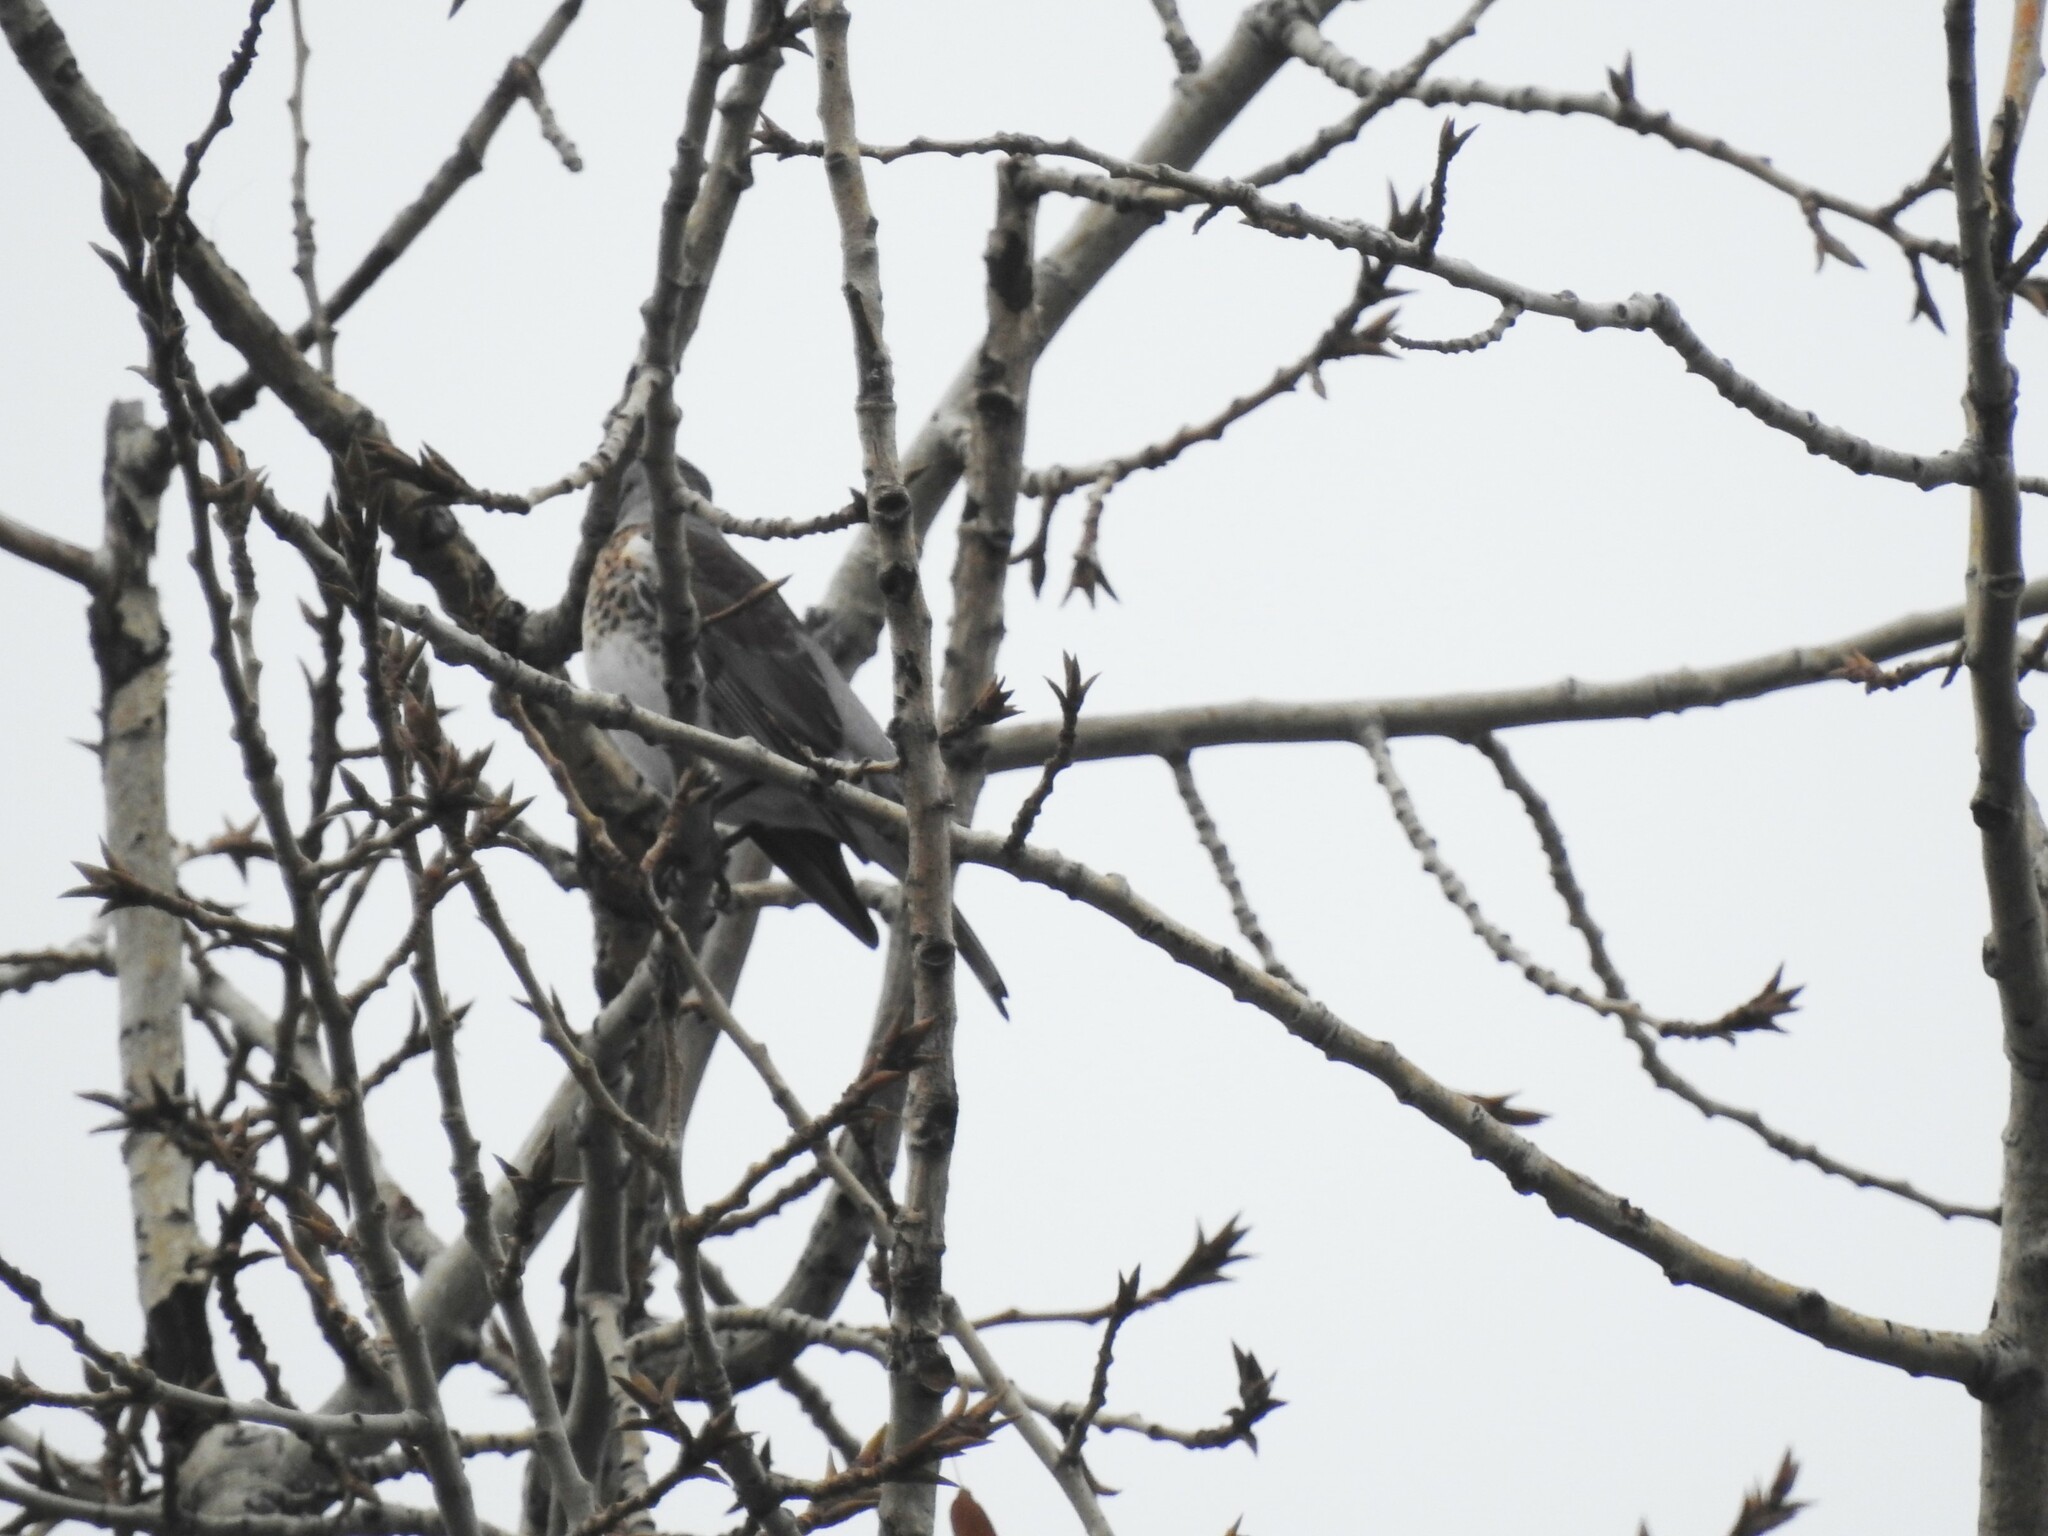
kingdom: Animalia
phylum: Chordata
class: Aves
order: Passeriformes
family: Turdidae
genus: Turdus
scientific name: Turdus pilaris
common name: Fieldfare
